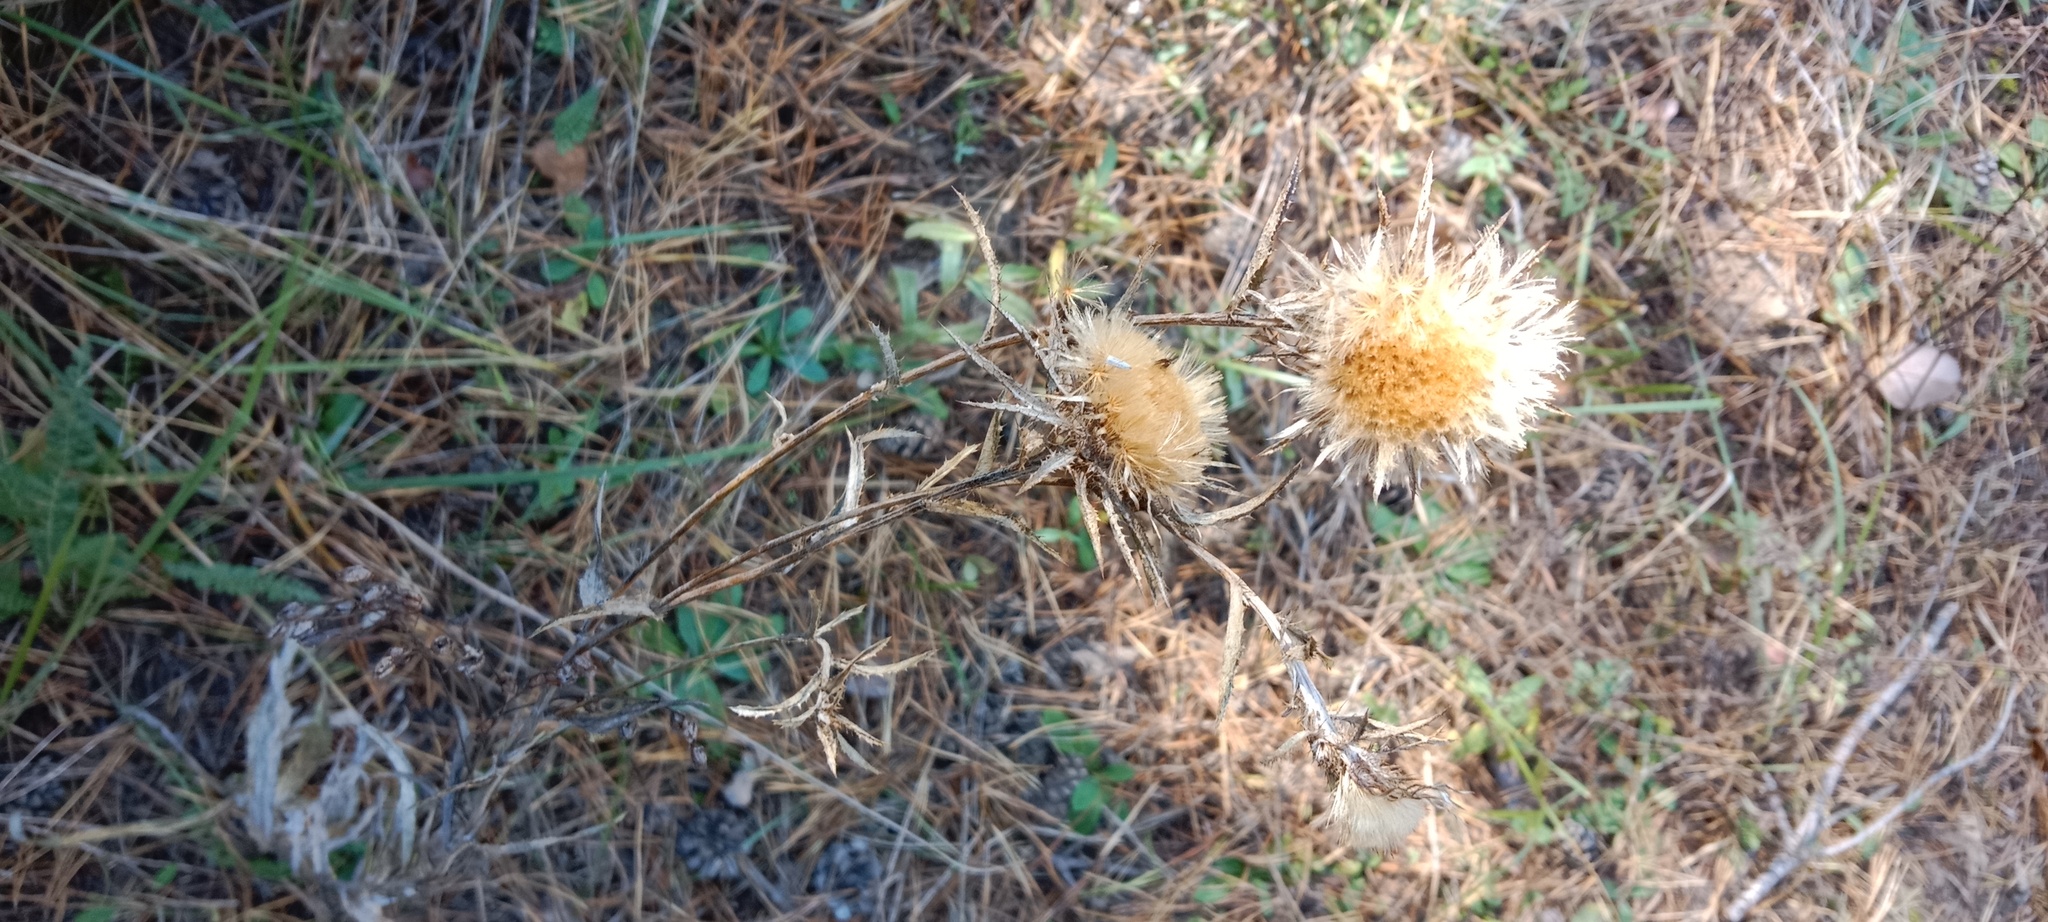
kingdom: Plantae
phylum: Tracheophyta
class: Magnoliopsida
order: Asterales
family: Asteraceae
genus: Carlina
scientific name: Carlina biebersteinii
